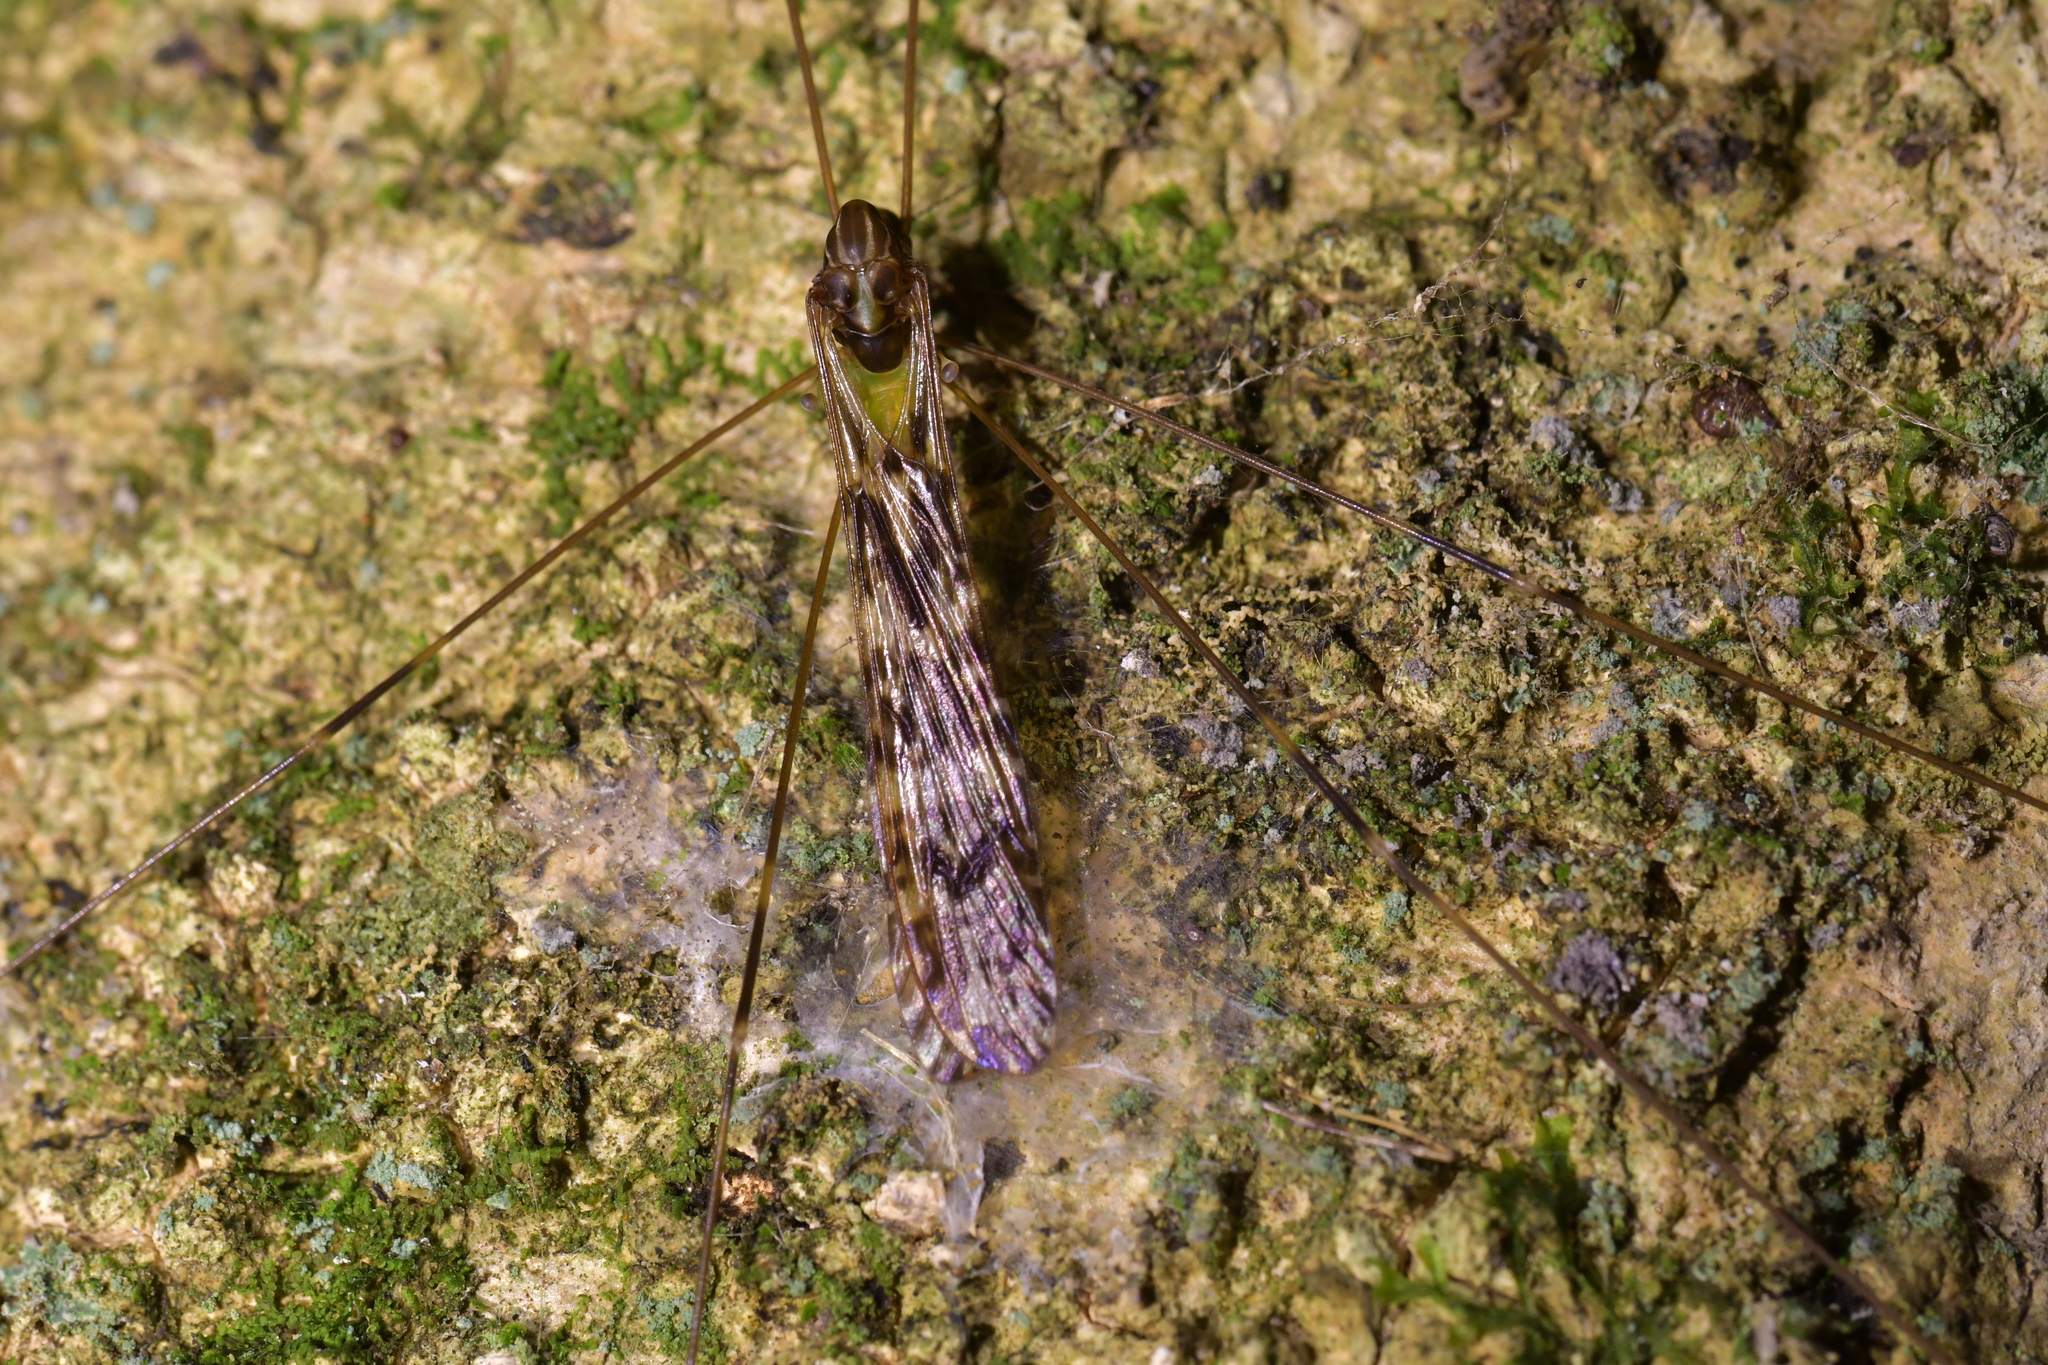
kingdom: Animalia
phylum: Arthropoda
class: Insecta
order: Diptera
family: Limoniidae
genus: Discobola
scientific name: Discobola dohrni
